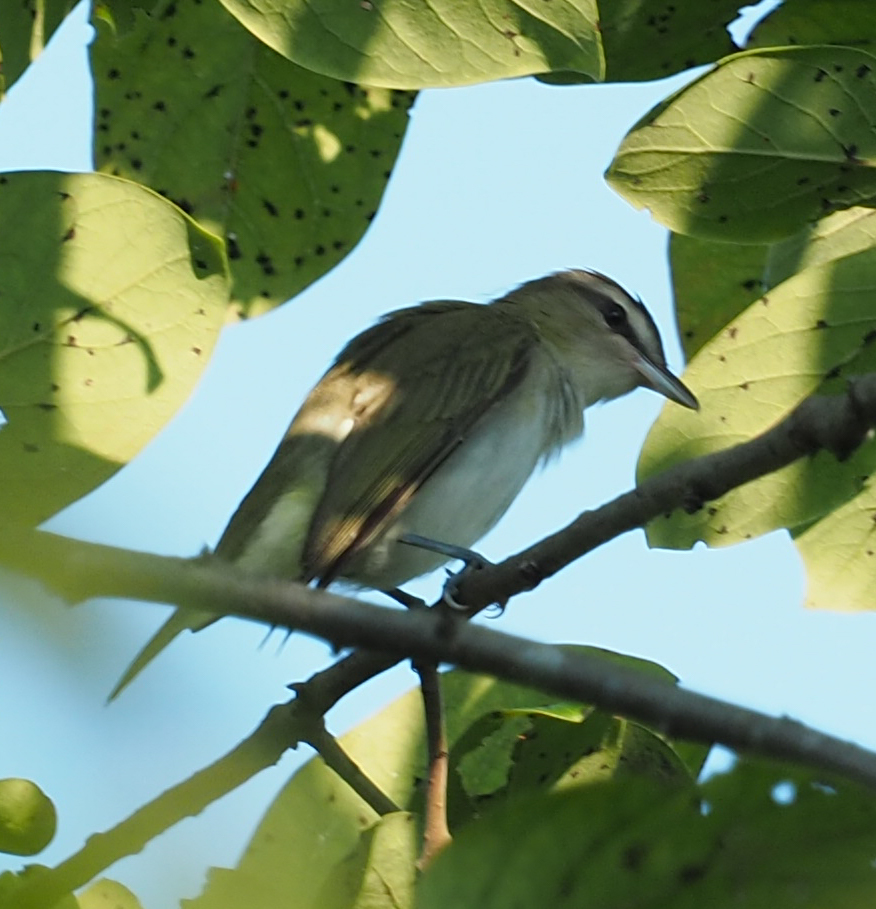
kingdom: Animalia
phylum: Chordata
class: Aves
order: Passeriformes
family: Vireonidae
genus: Vireo
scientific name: Vireo olivaceus
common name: Red-eyed vireo
